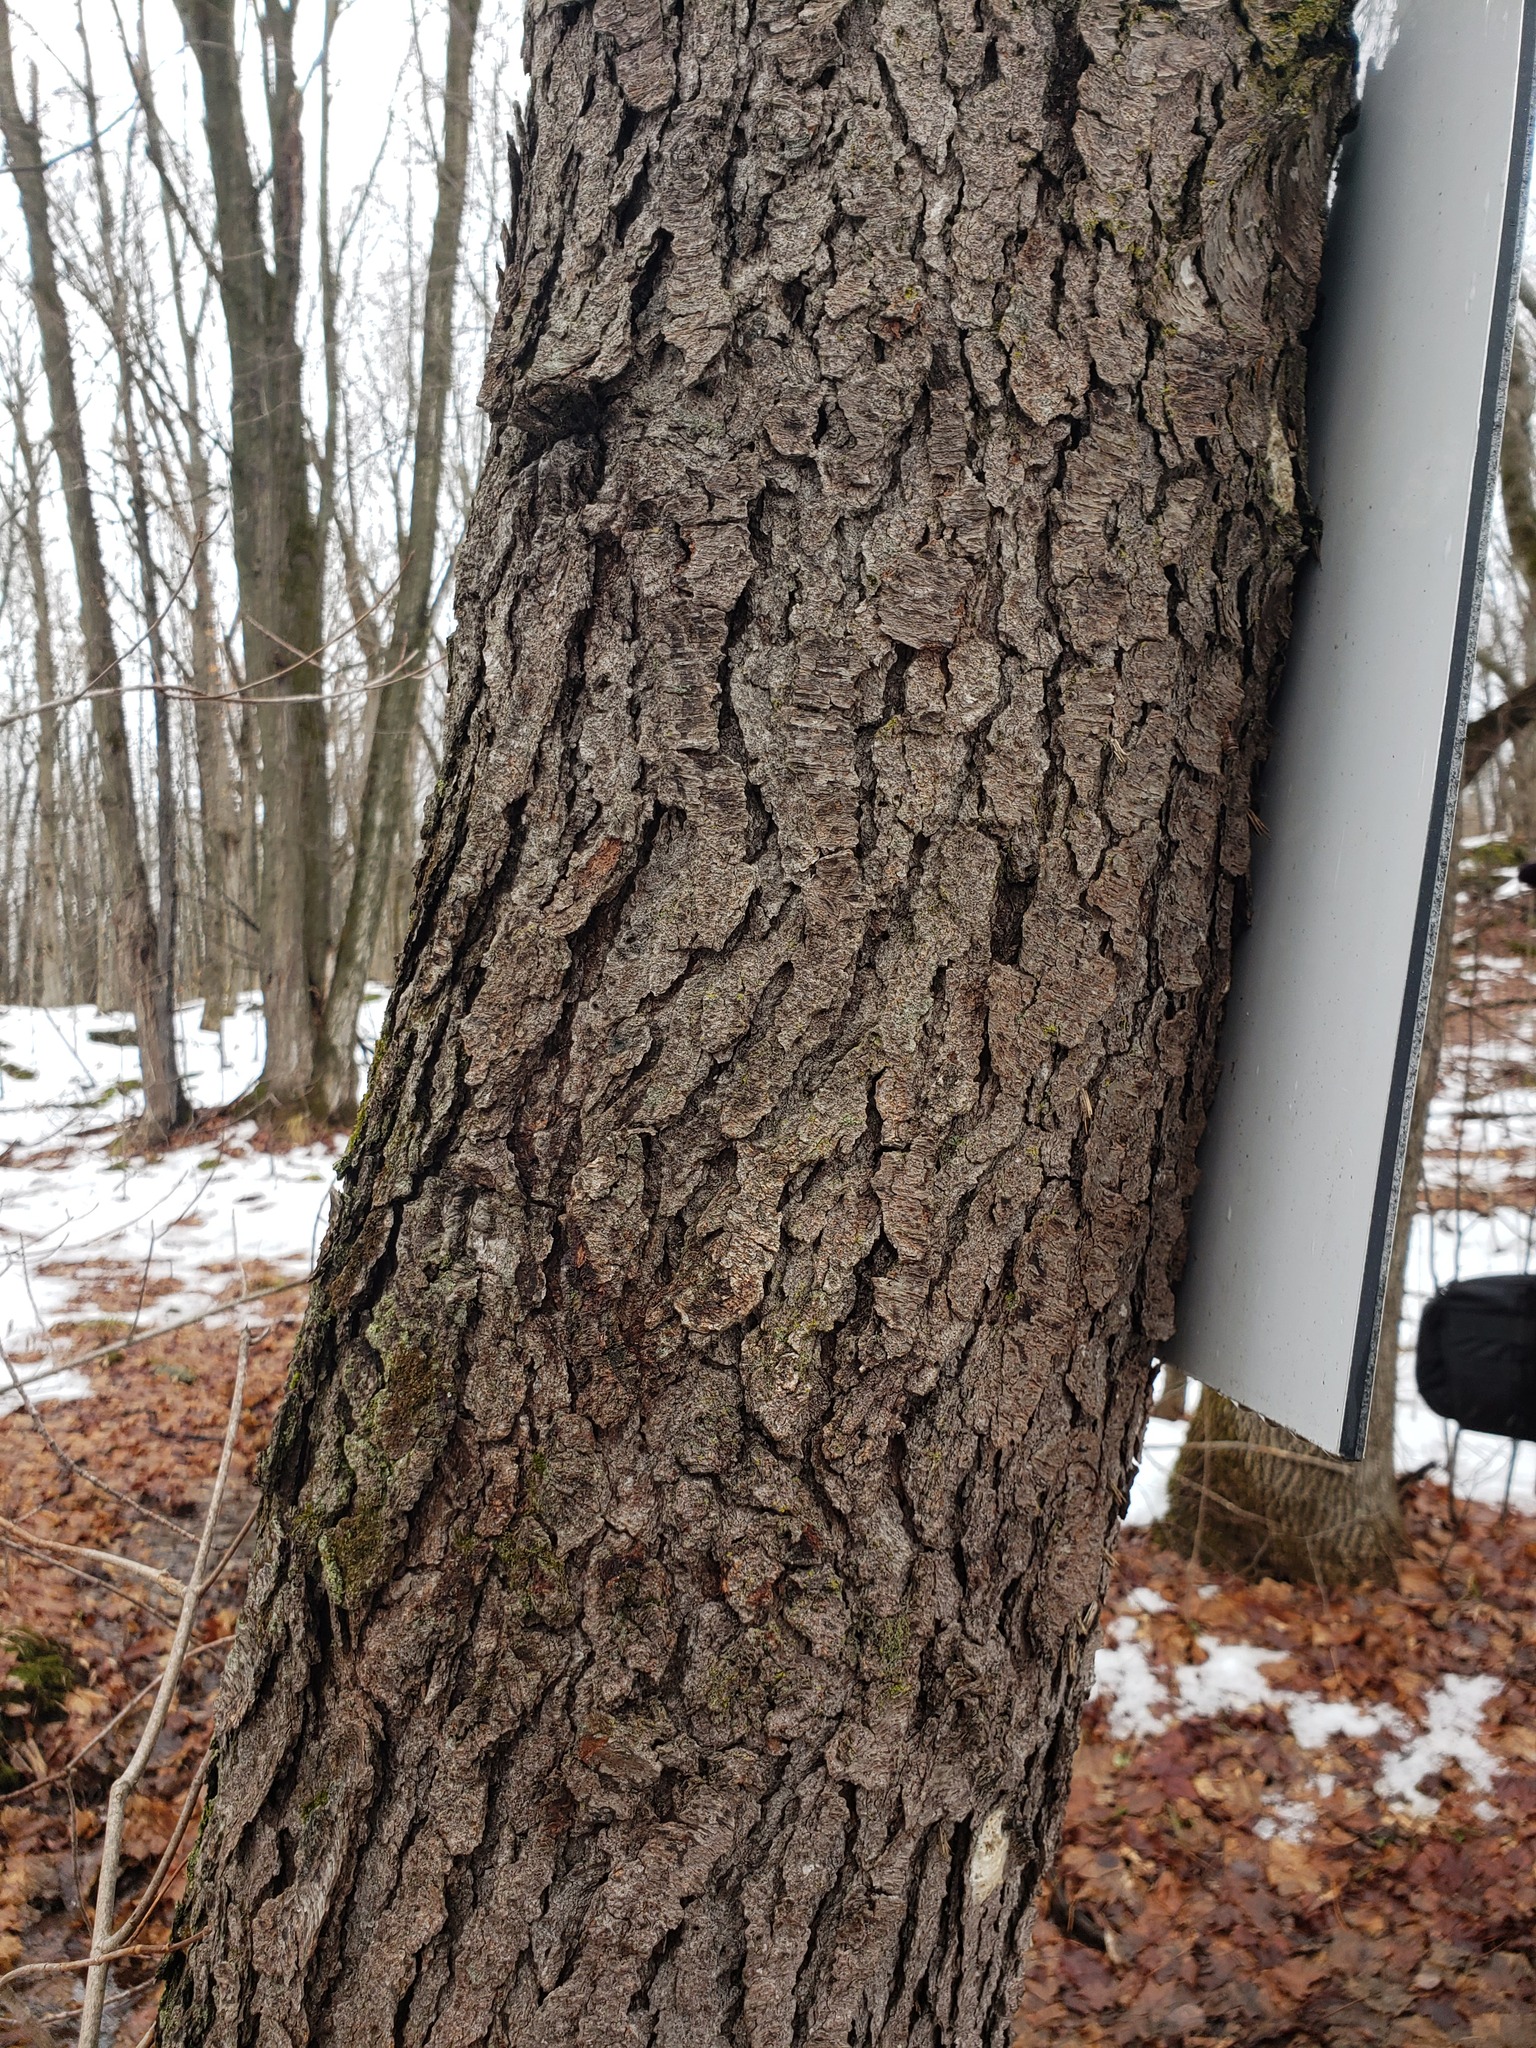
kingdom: Plantae
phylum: Tracheophyta
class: Magnoliopsida
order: Rosales
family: Rosaceae
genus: Prunus
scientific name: Prunus serotina
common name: Black cherry
